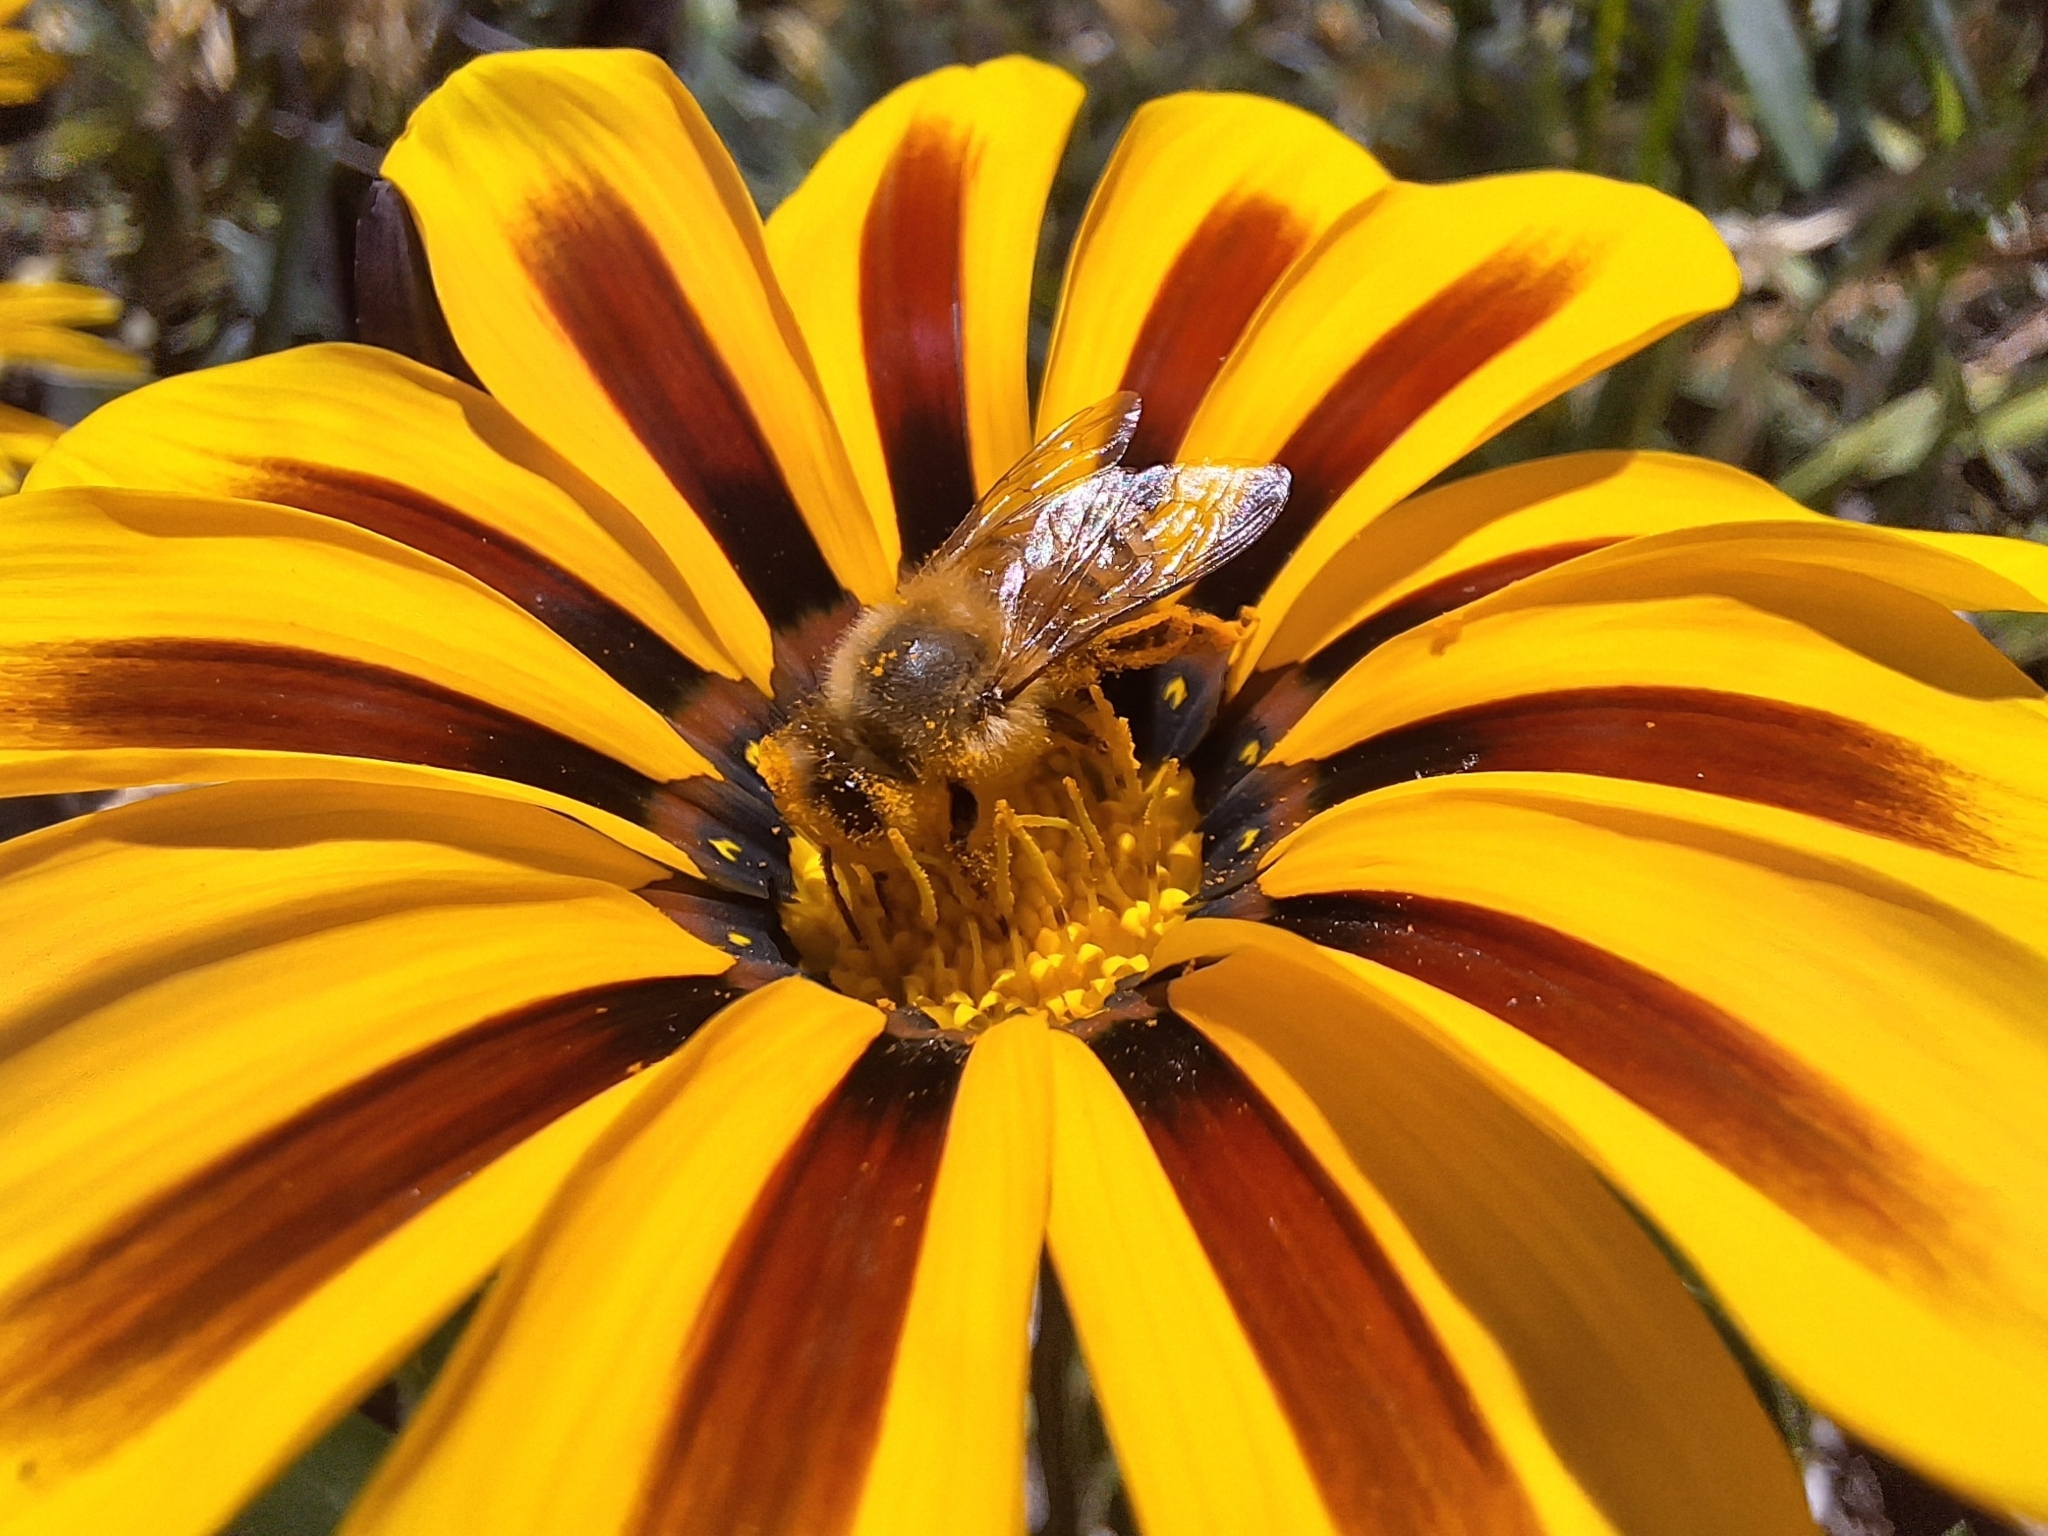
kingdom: Animalia
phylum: Arthropoda
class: Insecta
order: Hymenoptera
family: Apidae
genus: Apis
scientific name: Apis mellifera
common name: Honey bee
